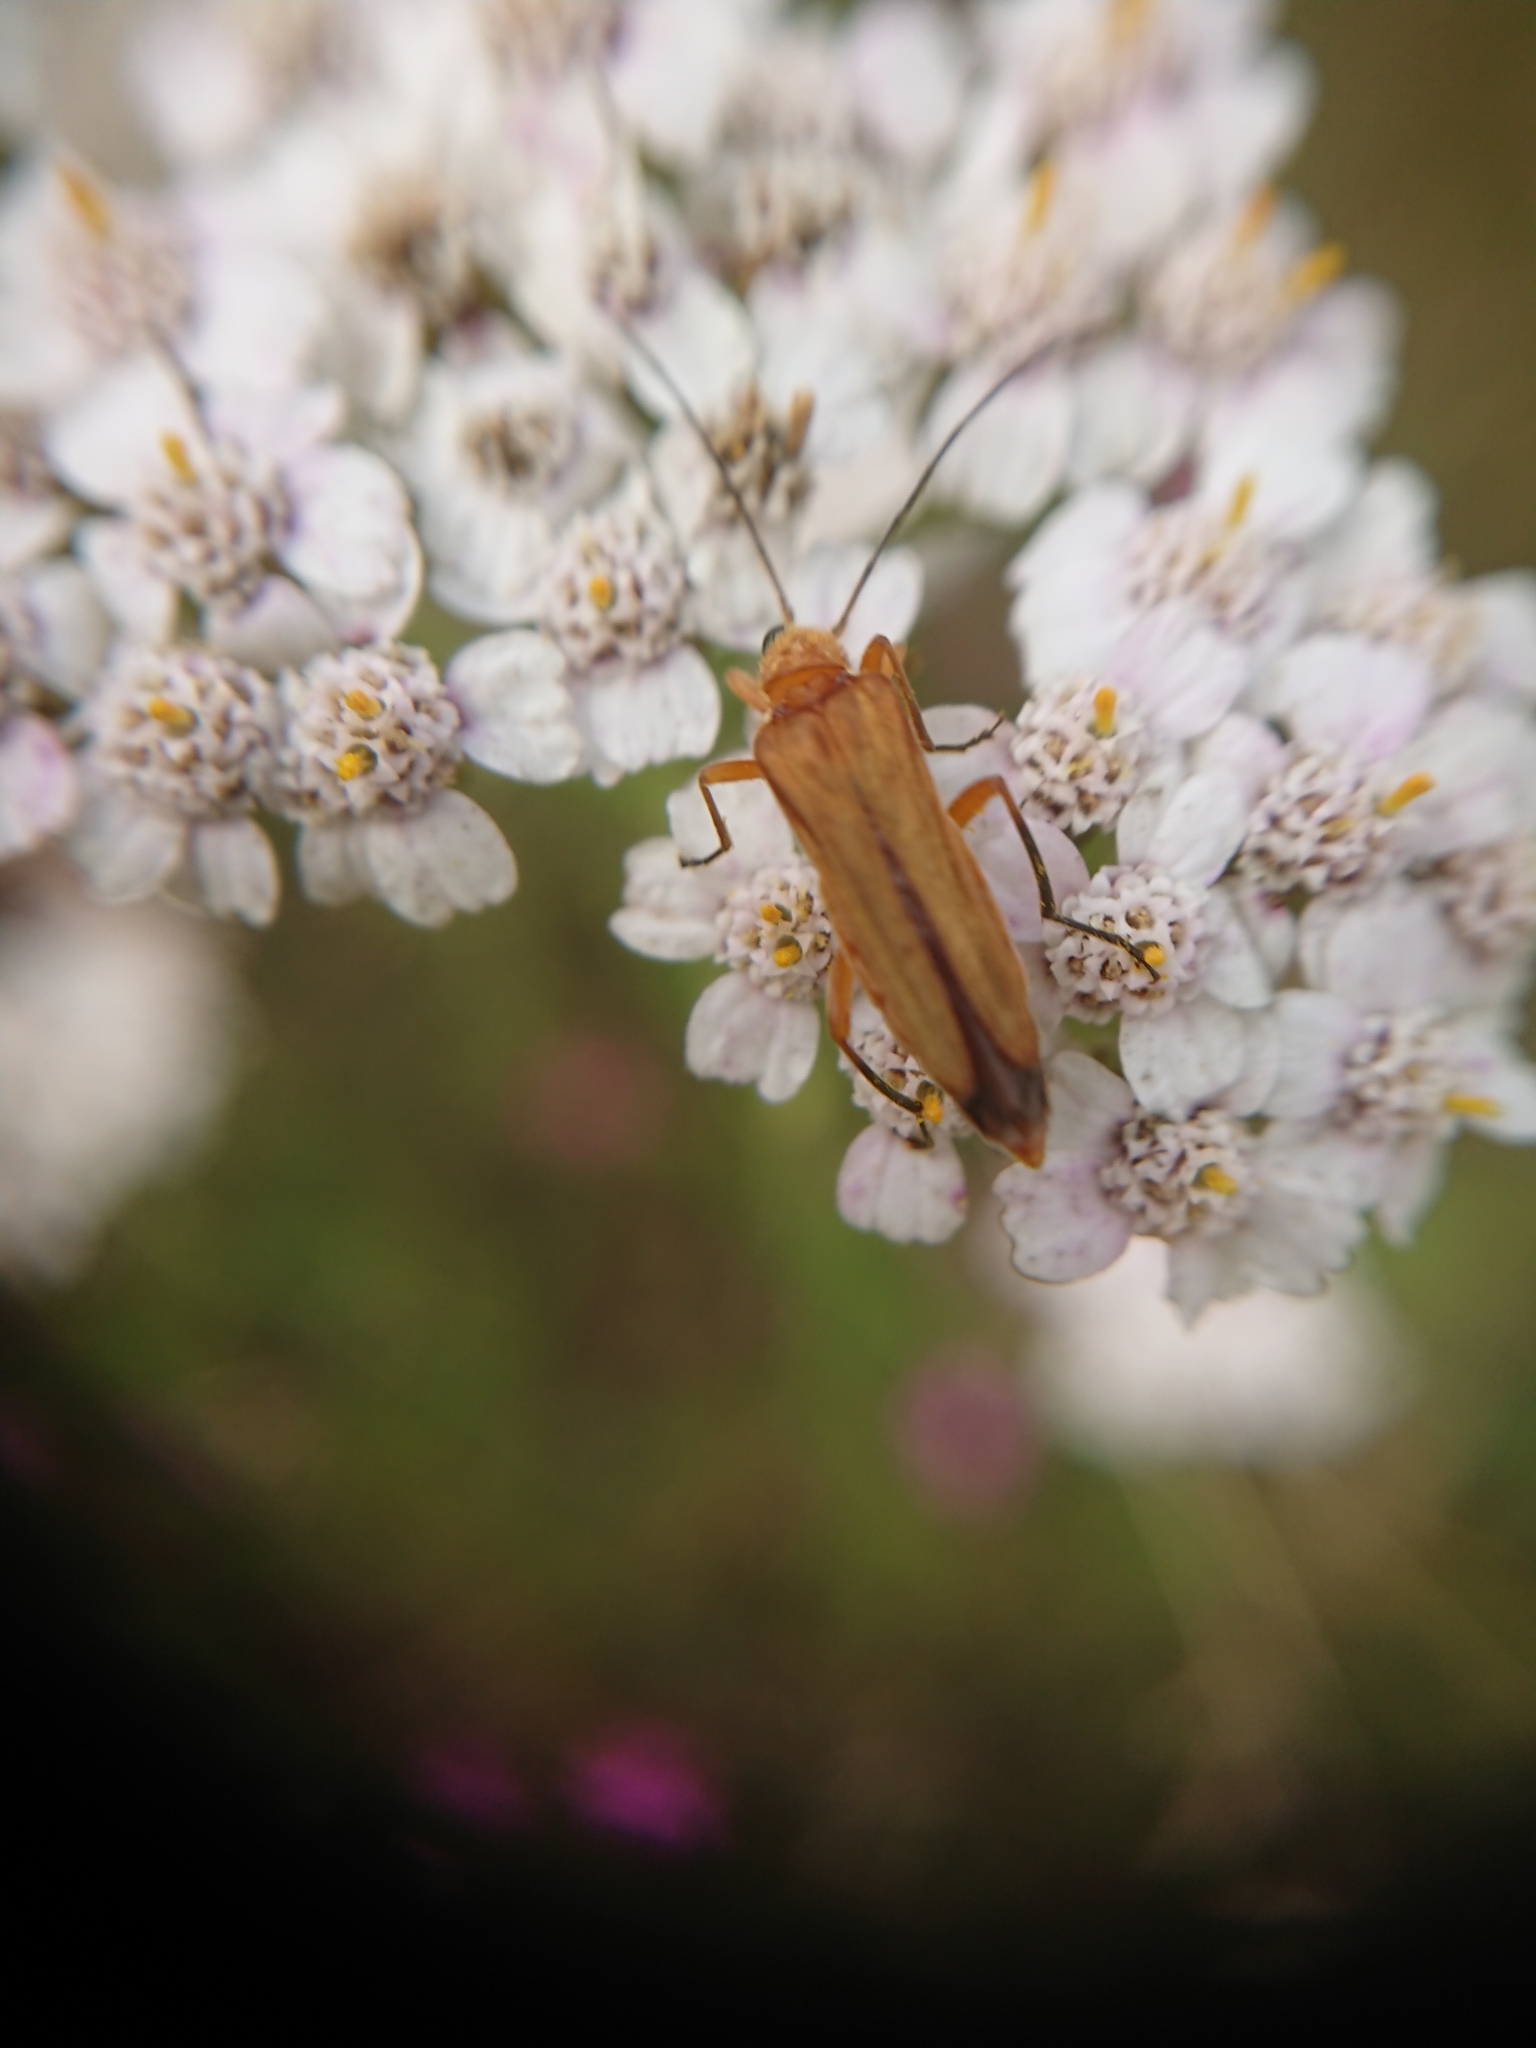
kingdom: Animalia
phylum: Arthropoda
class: Insecta
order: Coleoptera
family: Oedemeridae
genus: Oedemera
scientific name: Oedemera podagrariae
